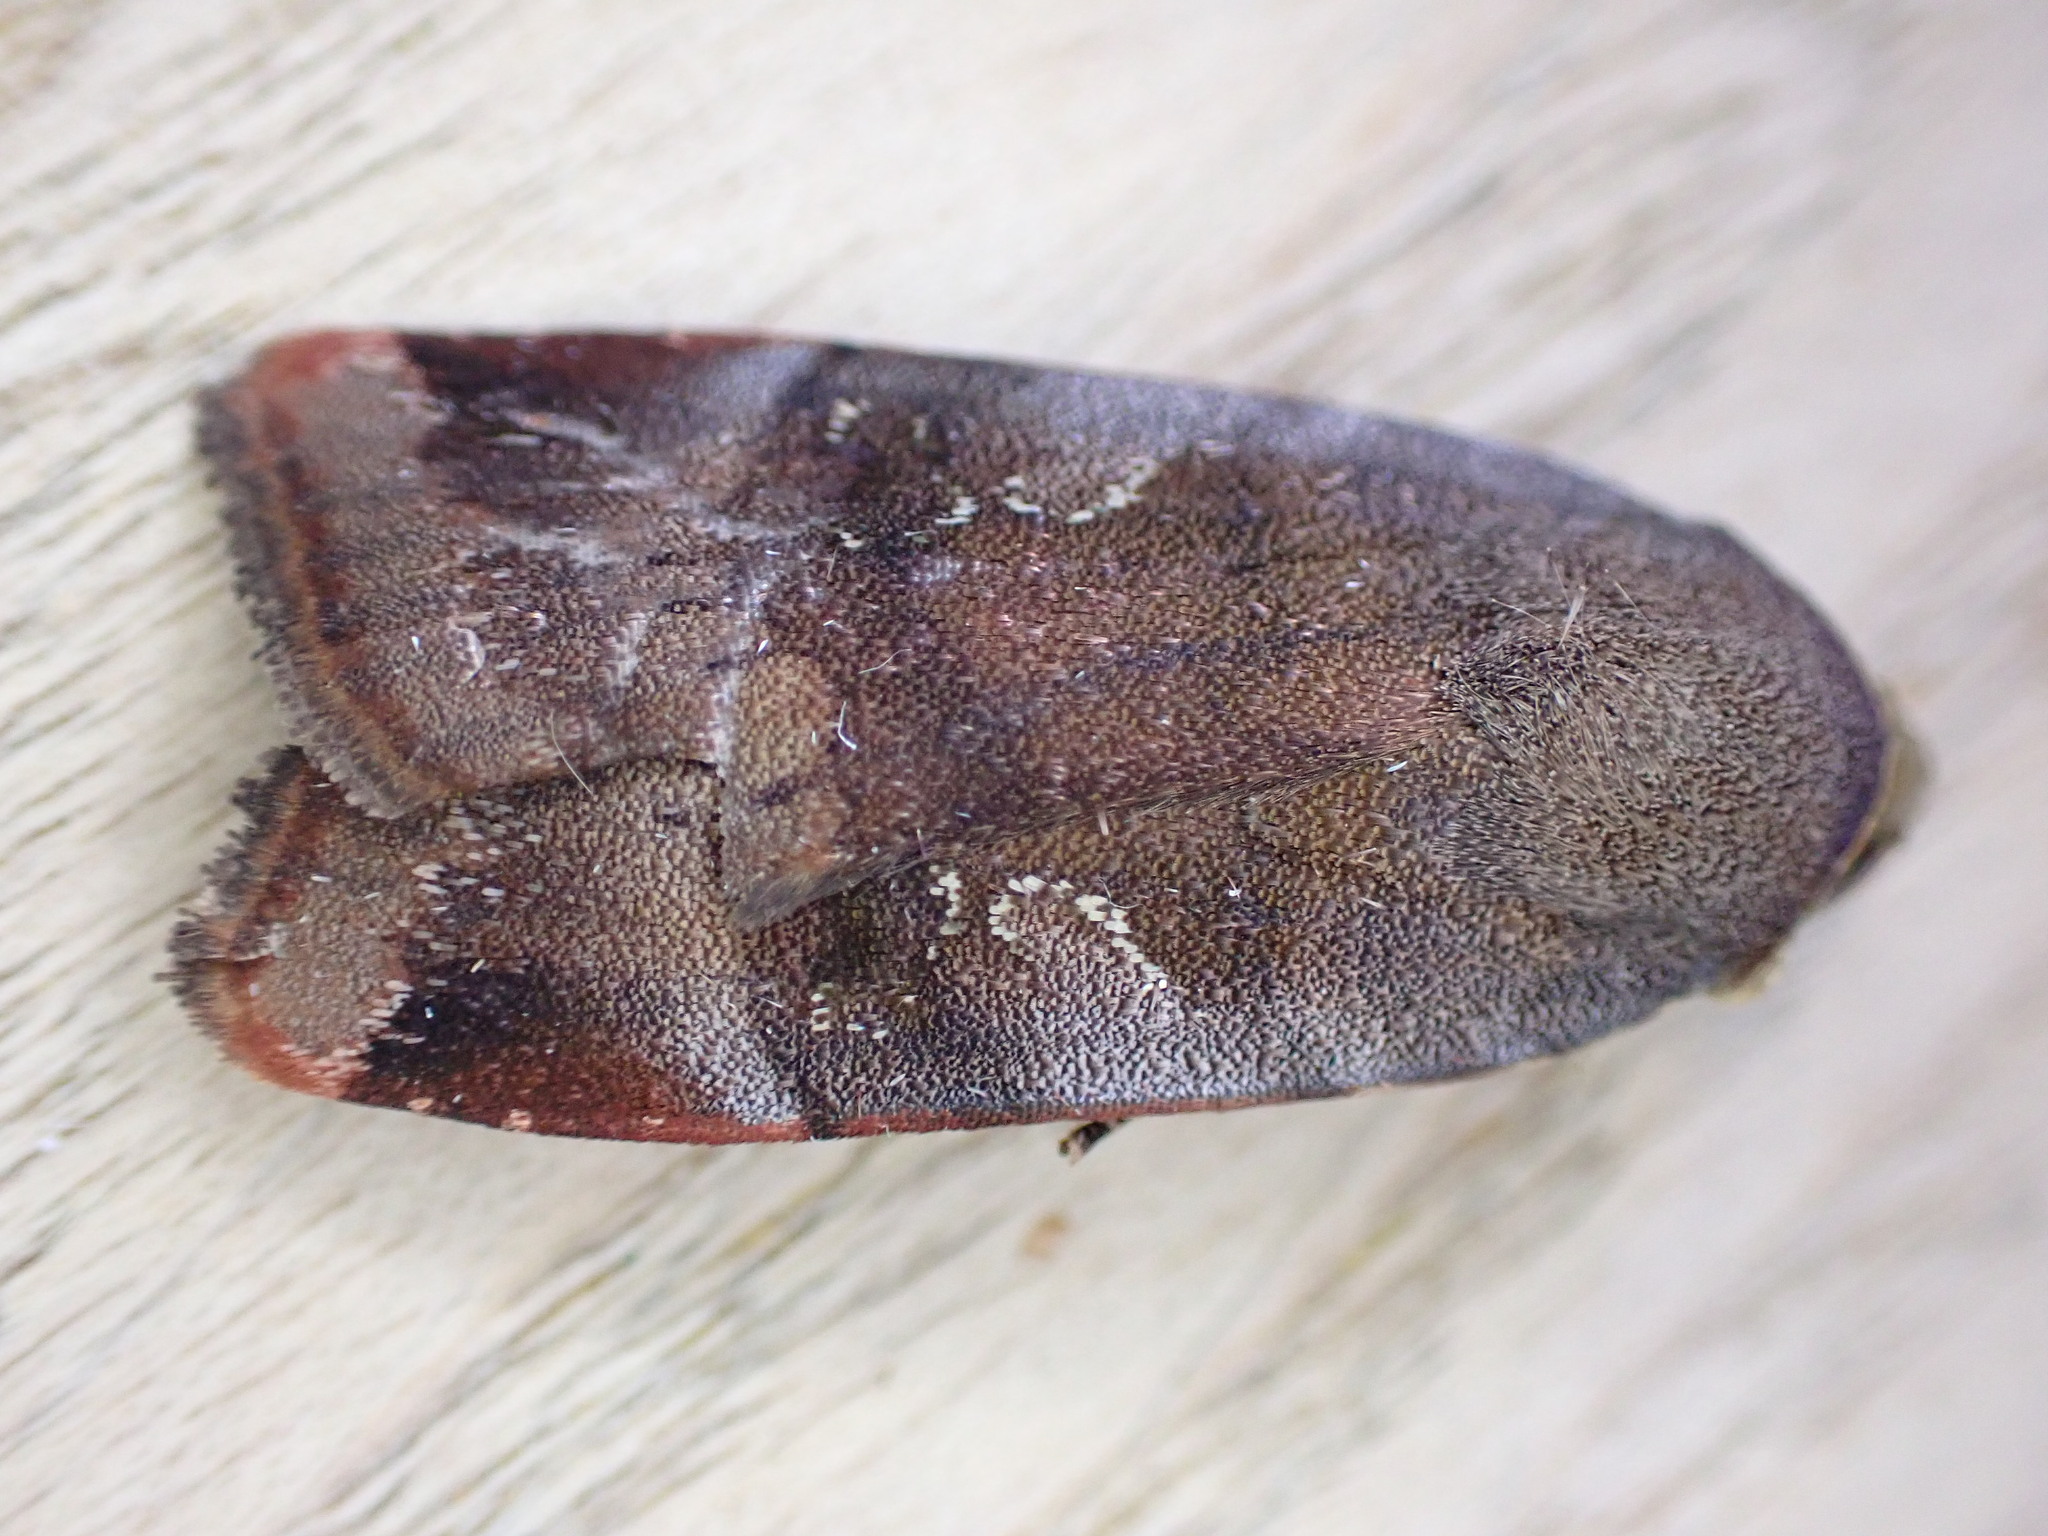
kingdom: Animalia
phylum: Arthropoda
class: Insecta
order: Lepidoptera
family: Noctuidae
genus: Noctua
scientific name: Noctua janthe
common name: Lesser broad-bordered yellow underwing
